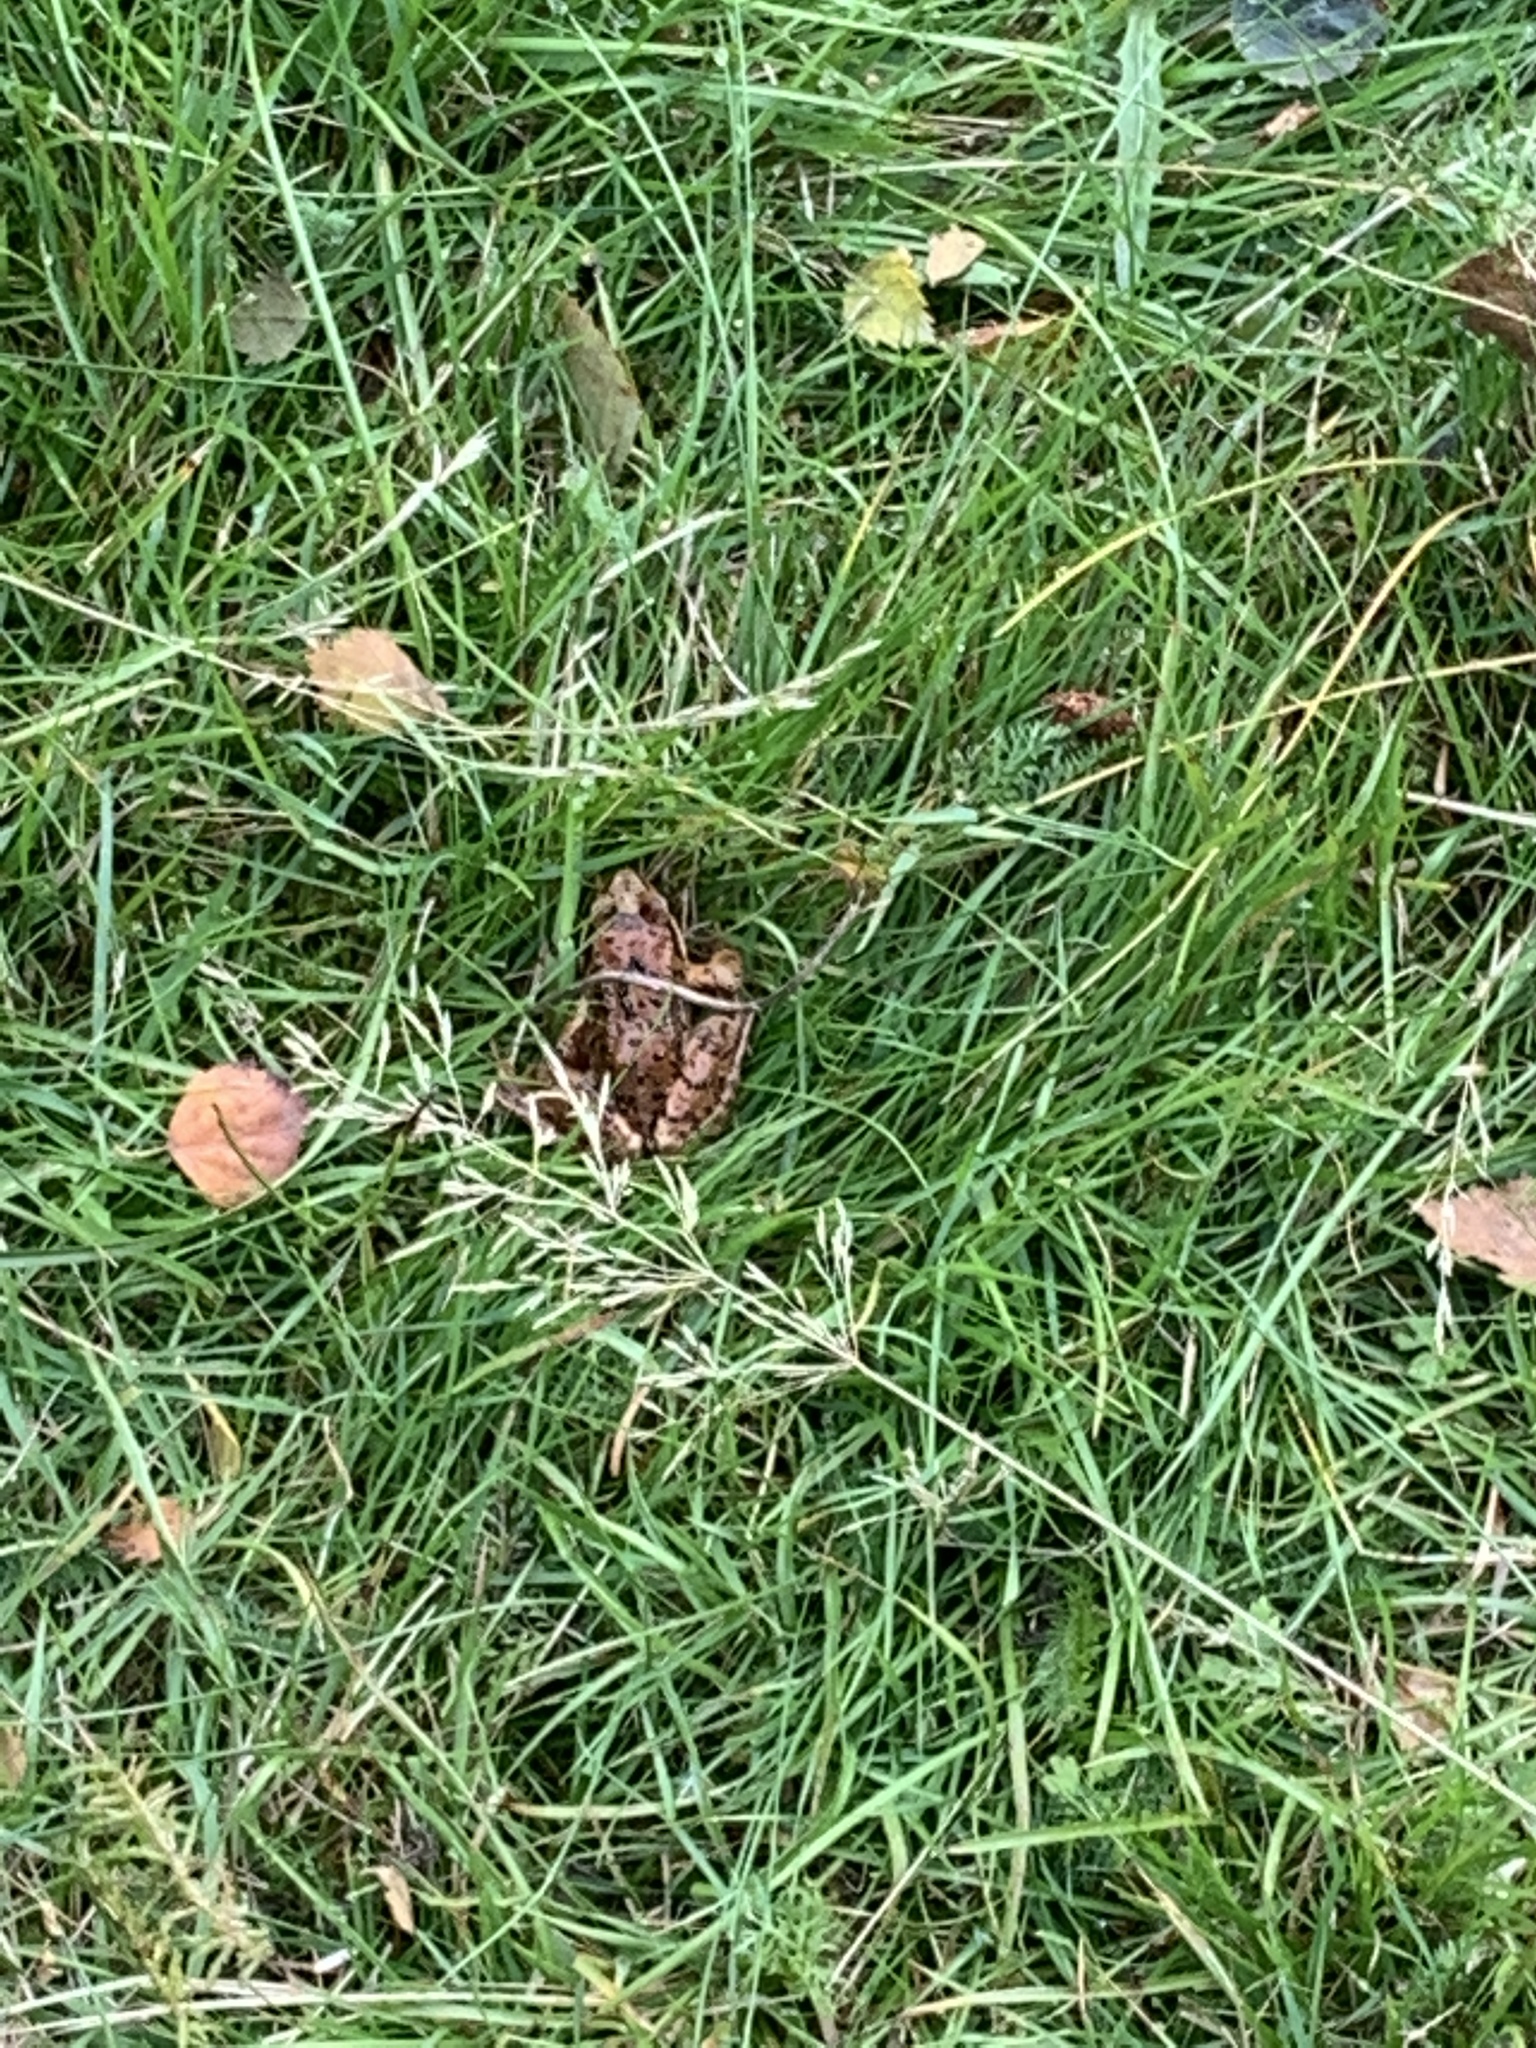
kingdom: Animalia
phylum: Chordata
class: Amphibia
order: Anura
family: Ranidae
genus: Rana
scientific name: Rana temporaria
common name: Common frog
